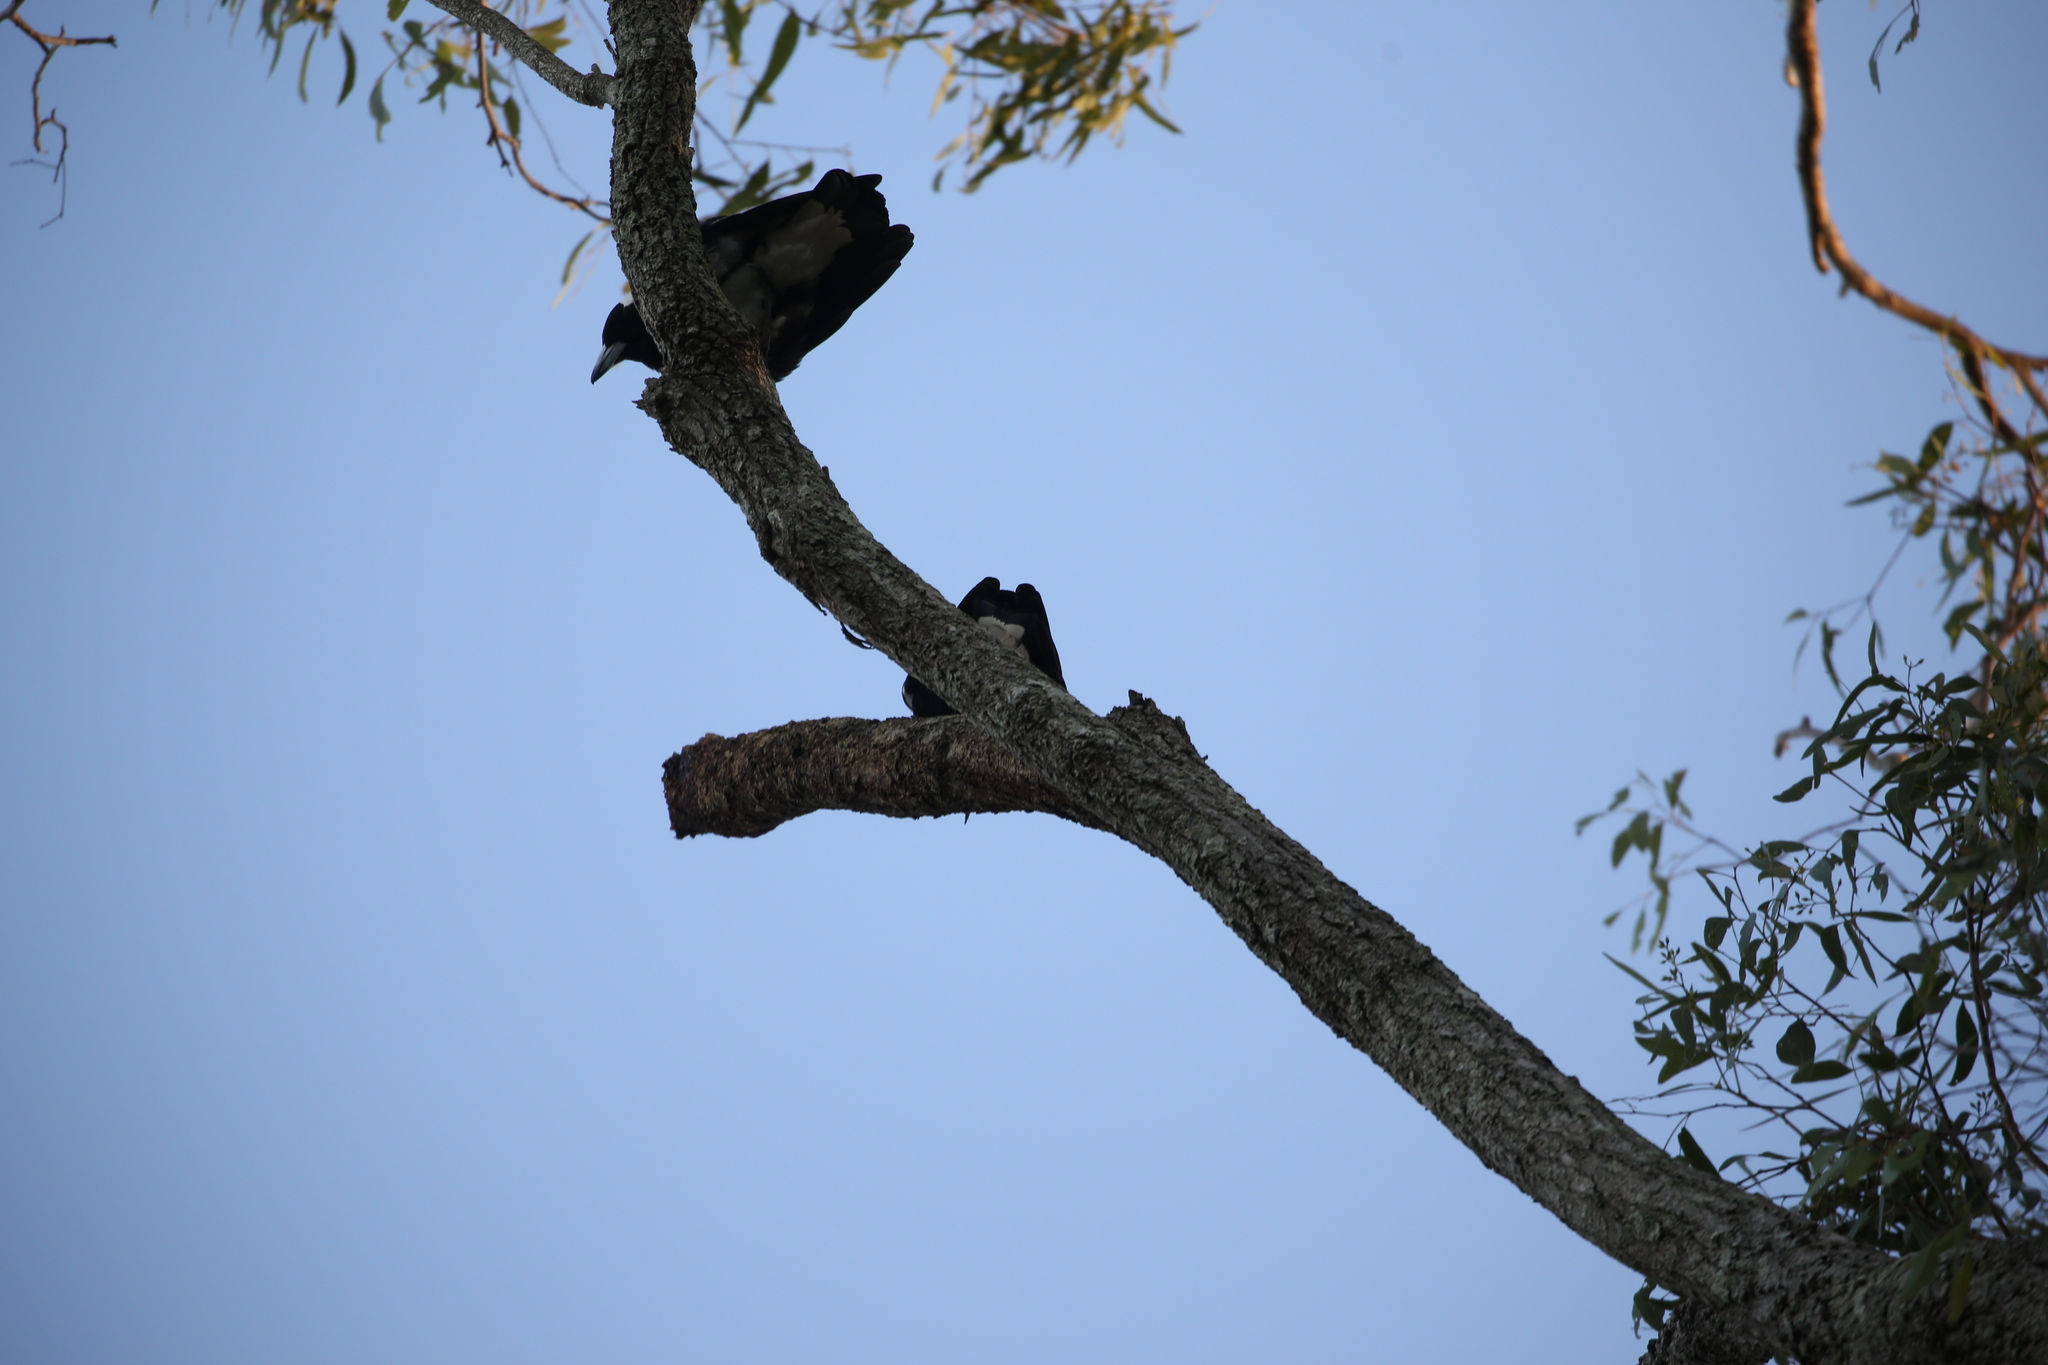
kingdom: Animalia
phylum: Chordata
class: Aves
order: Passeriformes
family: Cracticidae
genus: Gymnorhina
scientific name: Gymnorhina tibicen
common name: Australian magpie
